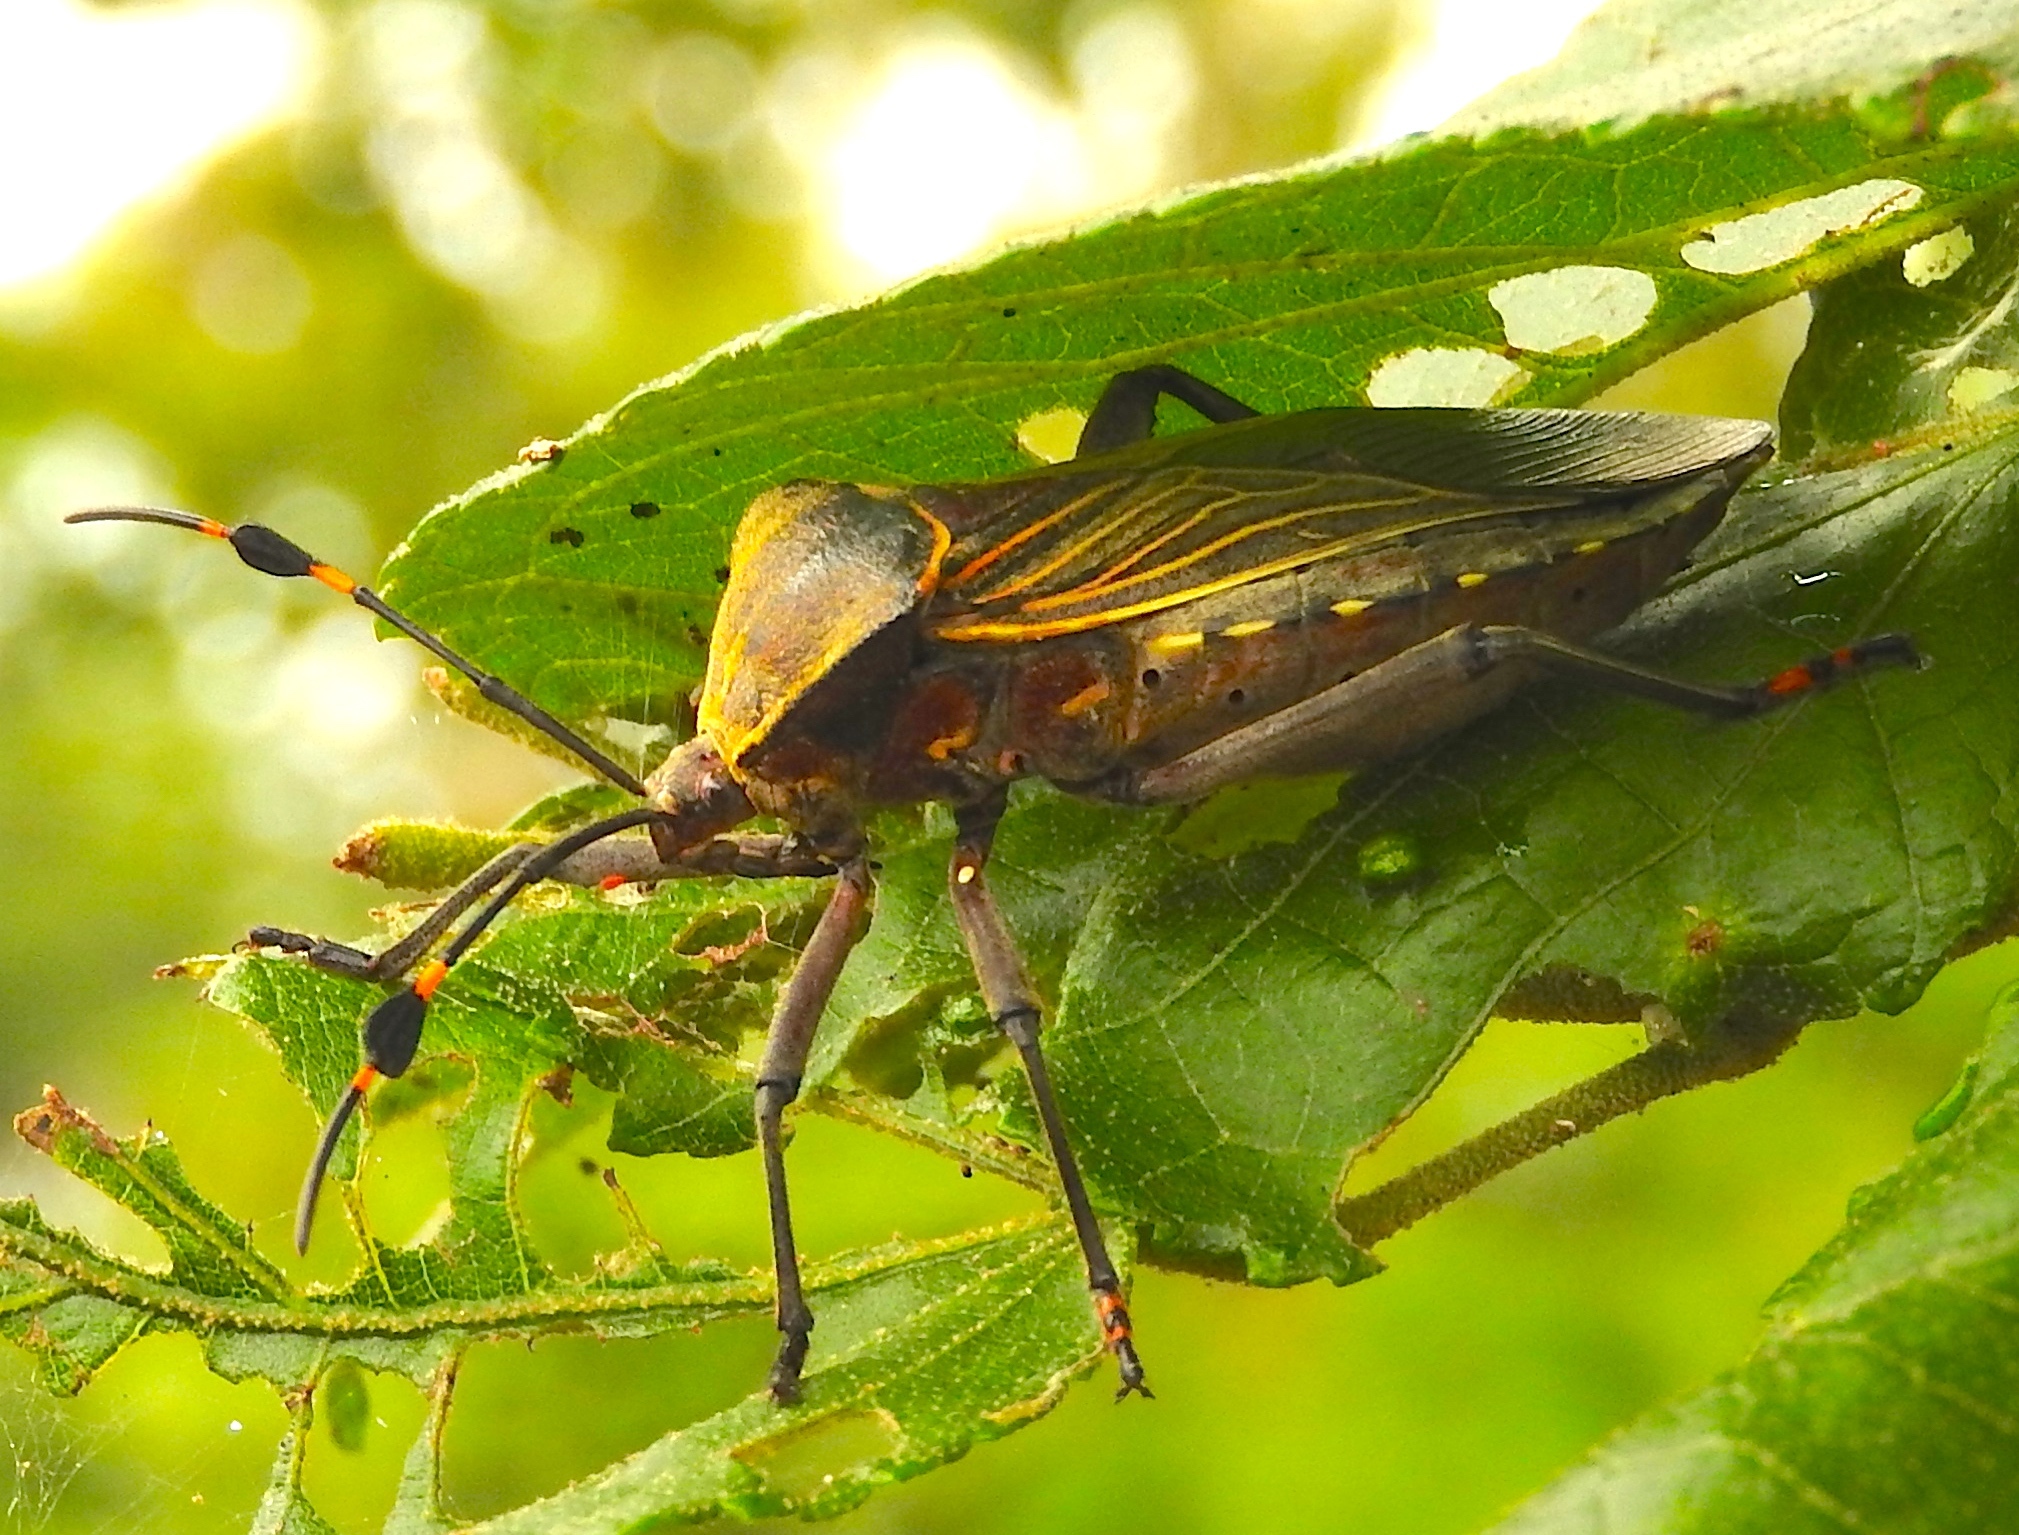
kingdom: Animalia
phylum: Arthropoda
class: Insecta
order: Hemiptera
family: Coreidae
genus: Pachylis
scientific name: Pachylis nervosus
